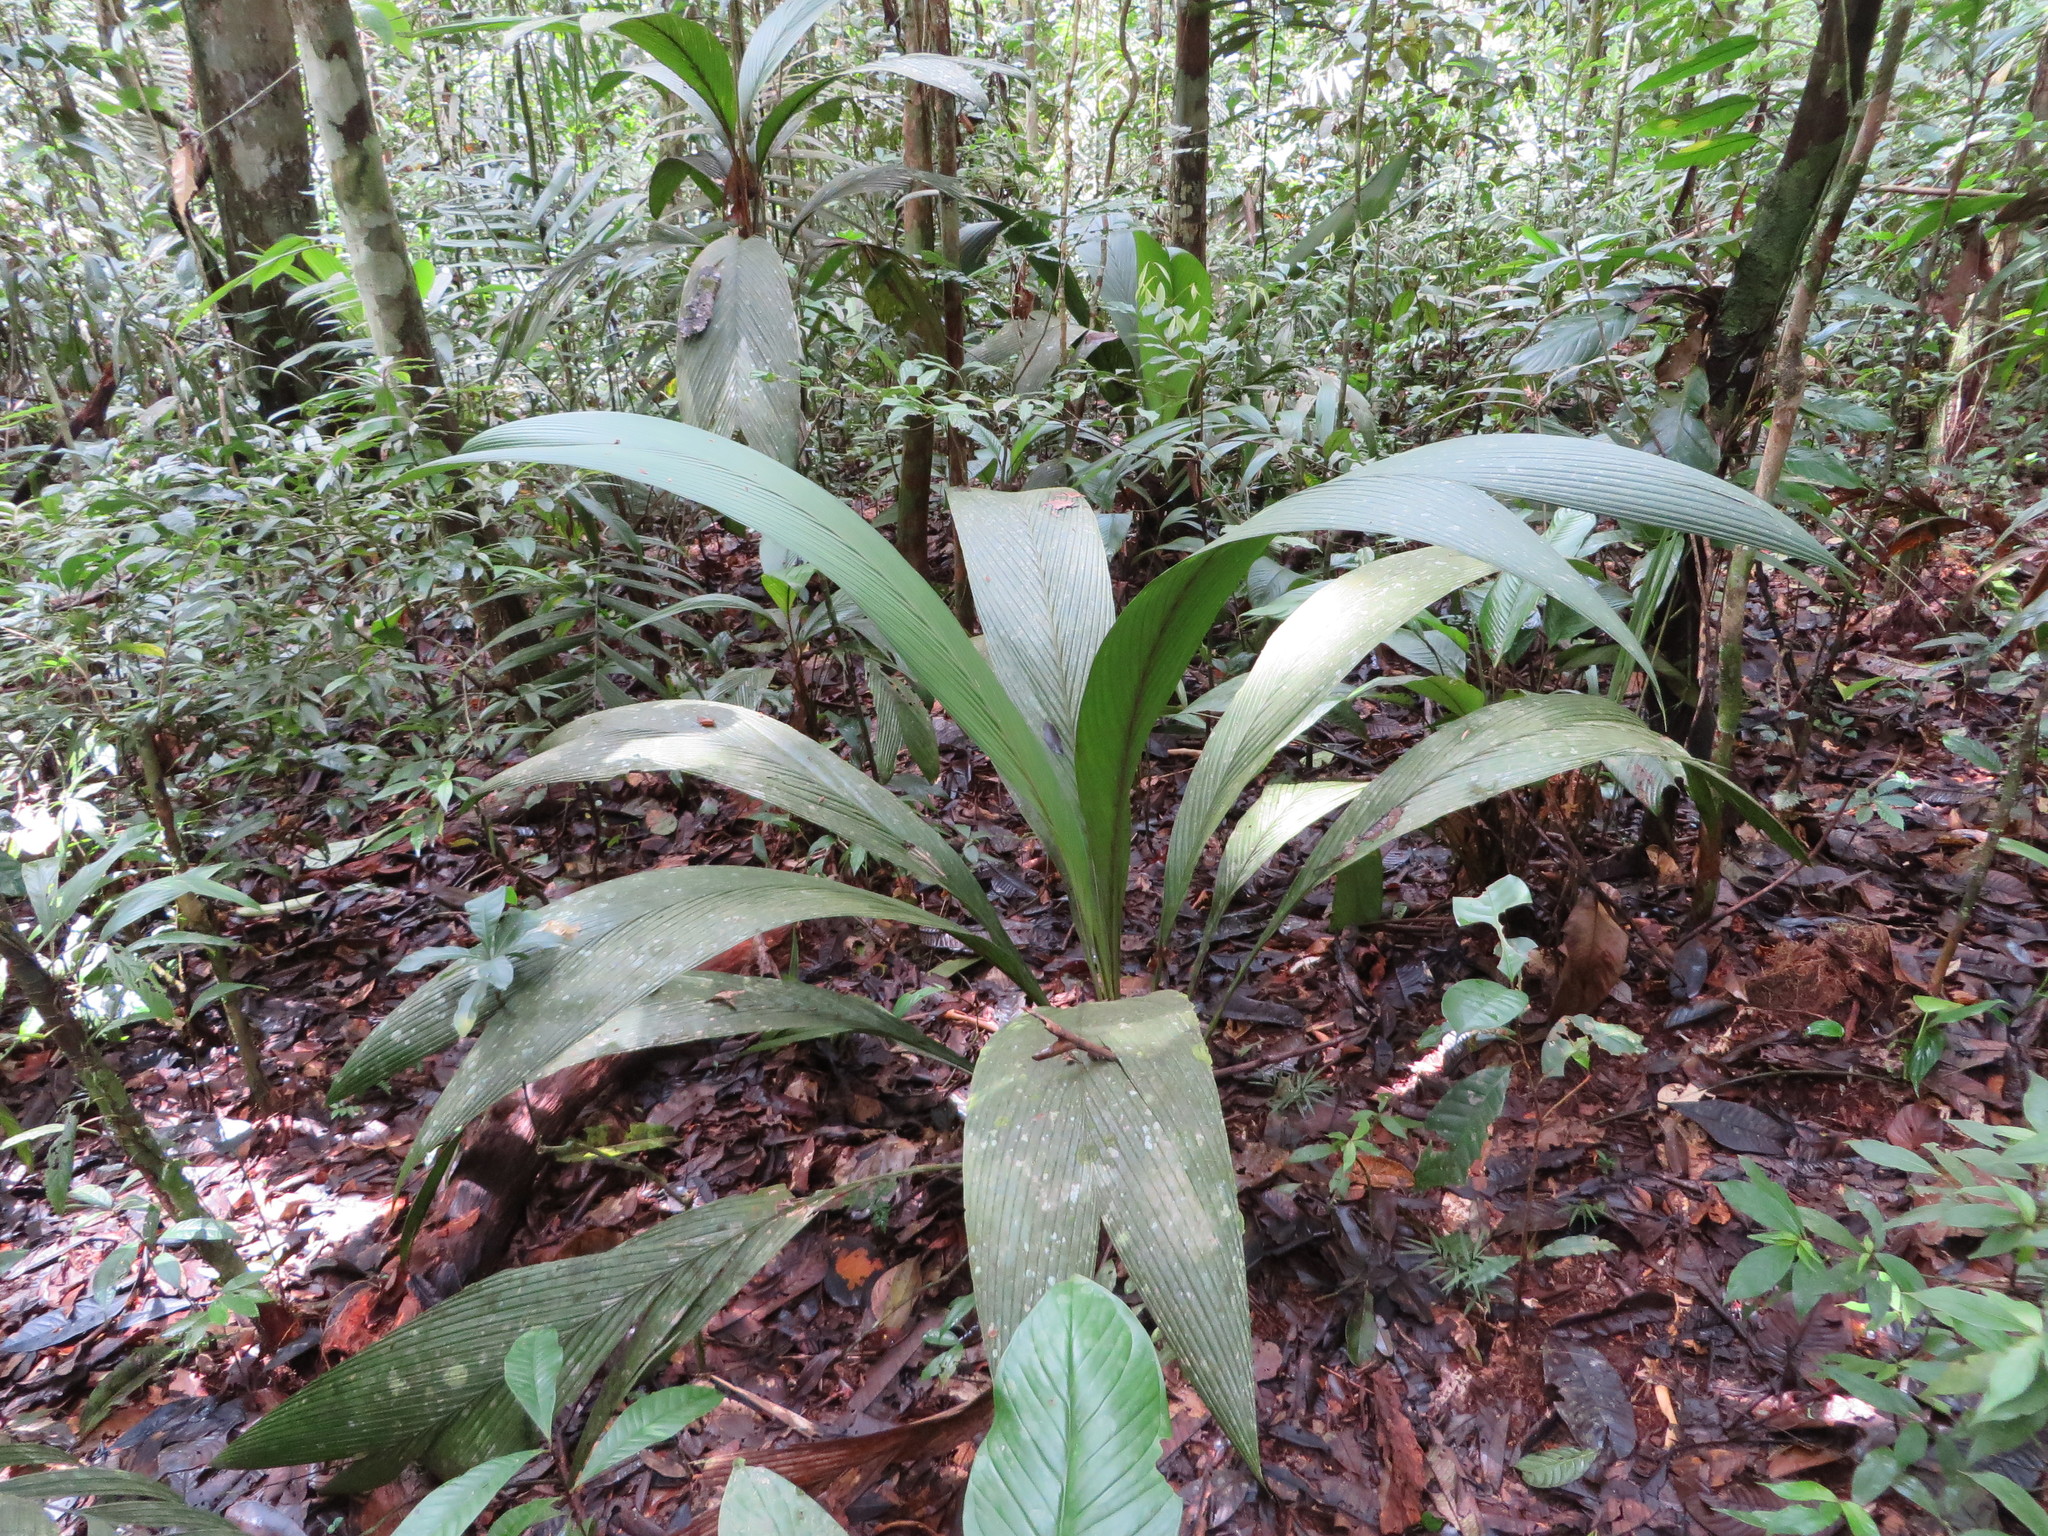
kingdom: Plantae
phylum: Tracheophyta
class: Liliopsida
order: Arecales
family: Arecaceae
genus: Geonoma
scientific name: Geonoma macrostachys
